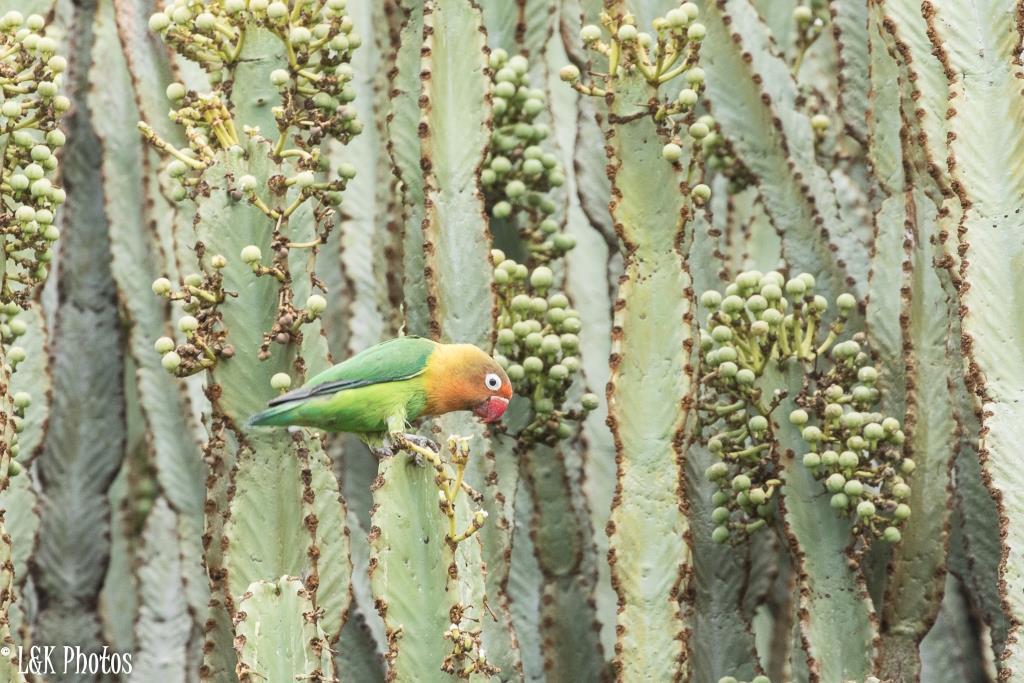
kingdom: Animalia
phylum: Chordata
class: Aves
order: Psittaciformes
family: Psittacidae
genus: Agapornis
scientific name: Agapornis fischeri
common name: Fischer's lovebird
